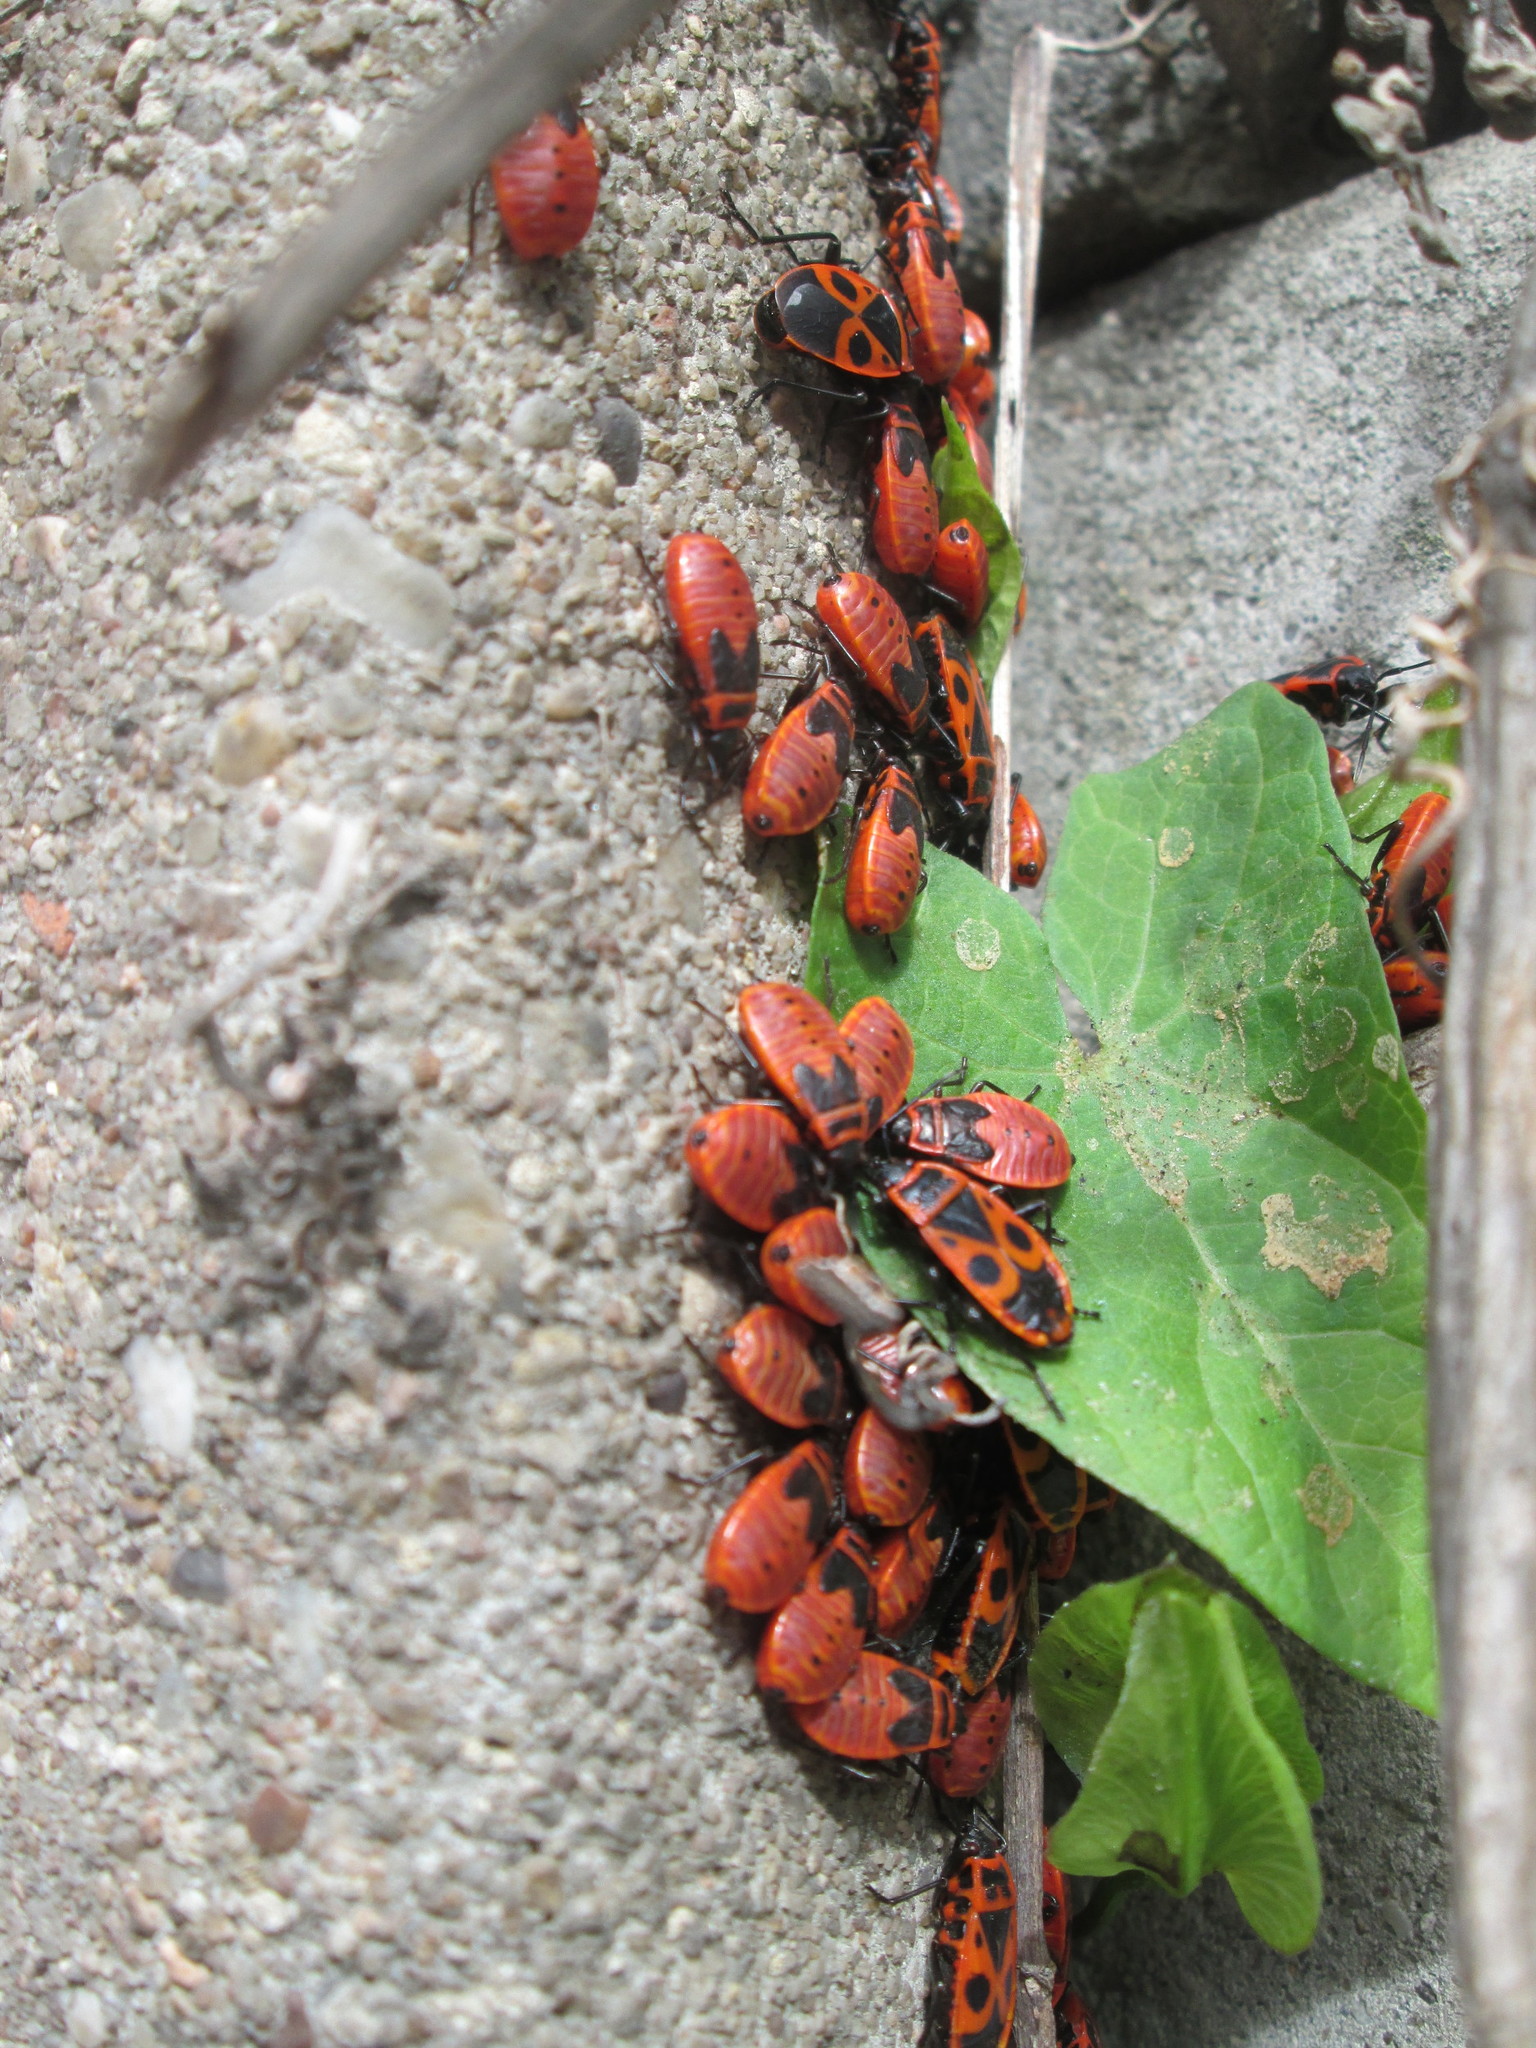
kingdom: Animalia
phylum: Arthropoda
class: Insecta
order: Hemiptera
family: Pyrrhocoridae
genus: Pyrrhocoris
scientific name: Pyrrhocoris apterus
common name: Firebug
